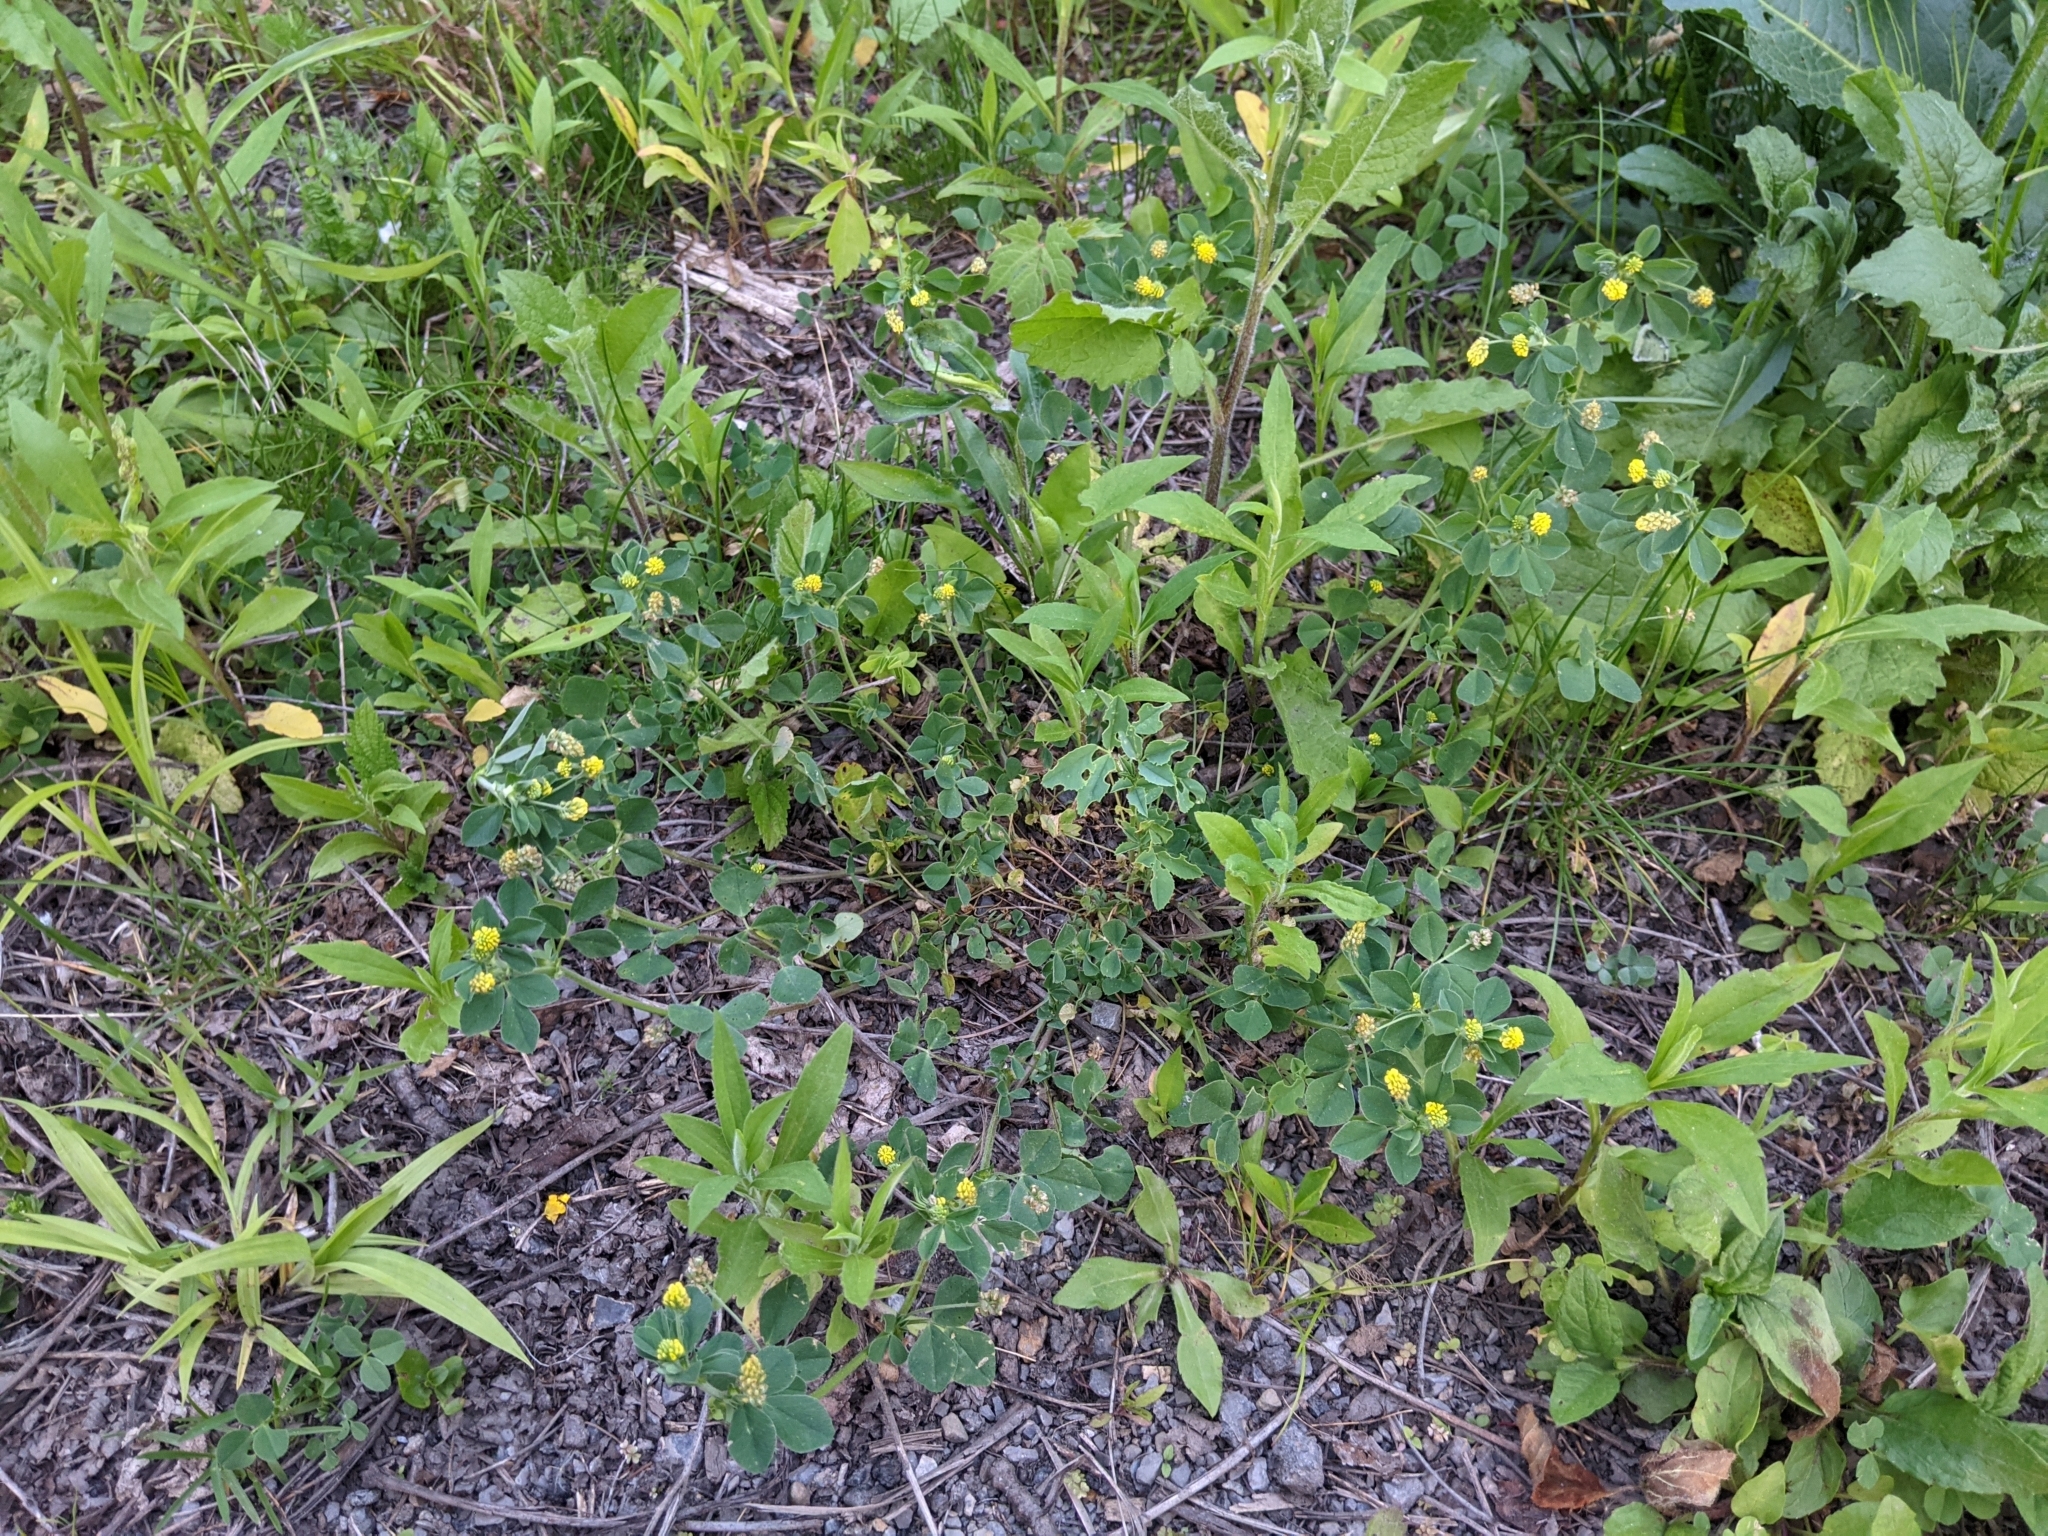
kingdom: Plantae
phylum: Tracheophyta
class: Magnoliopsida
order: Fabales
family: Fabaceae
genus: Medicago
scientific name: Medicago lupulina
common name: Black medick
